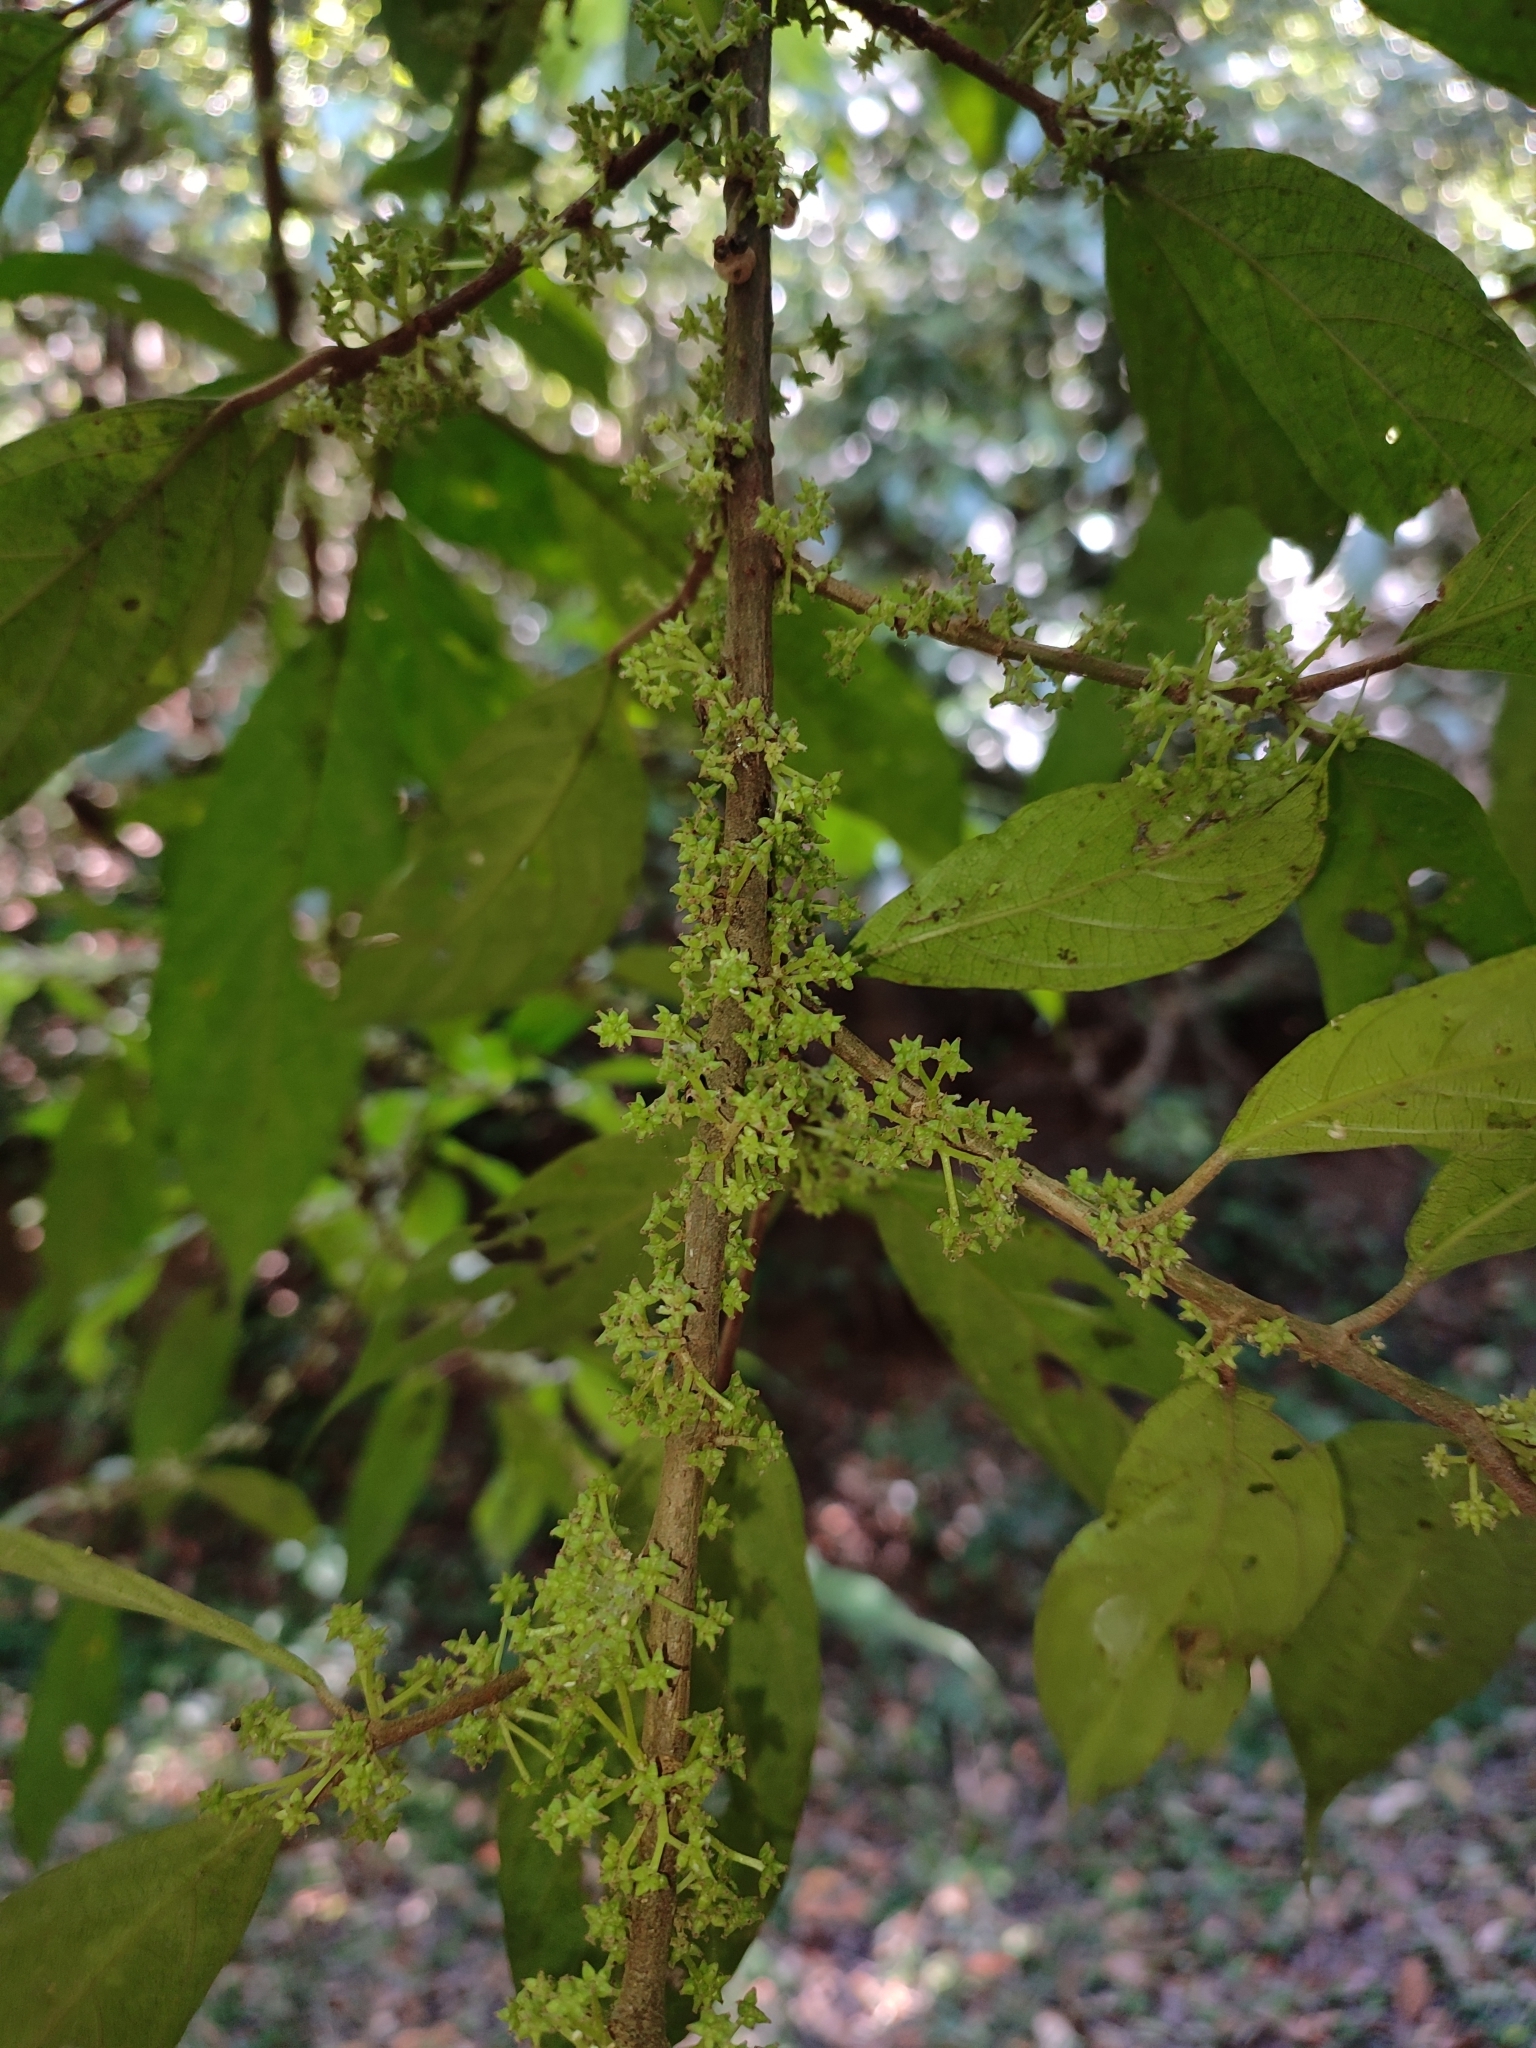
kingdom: Plantae
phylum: Tracheophyta
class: Magnoliopsida
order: Rosales
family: Urticaceae
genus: Oreocnide
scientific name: Oreocnide integrifolia
